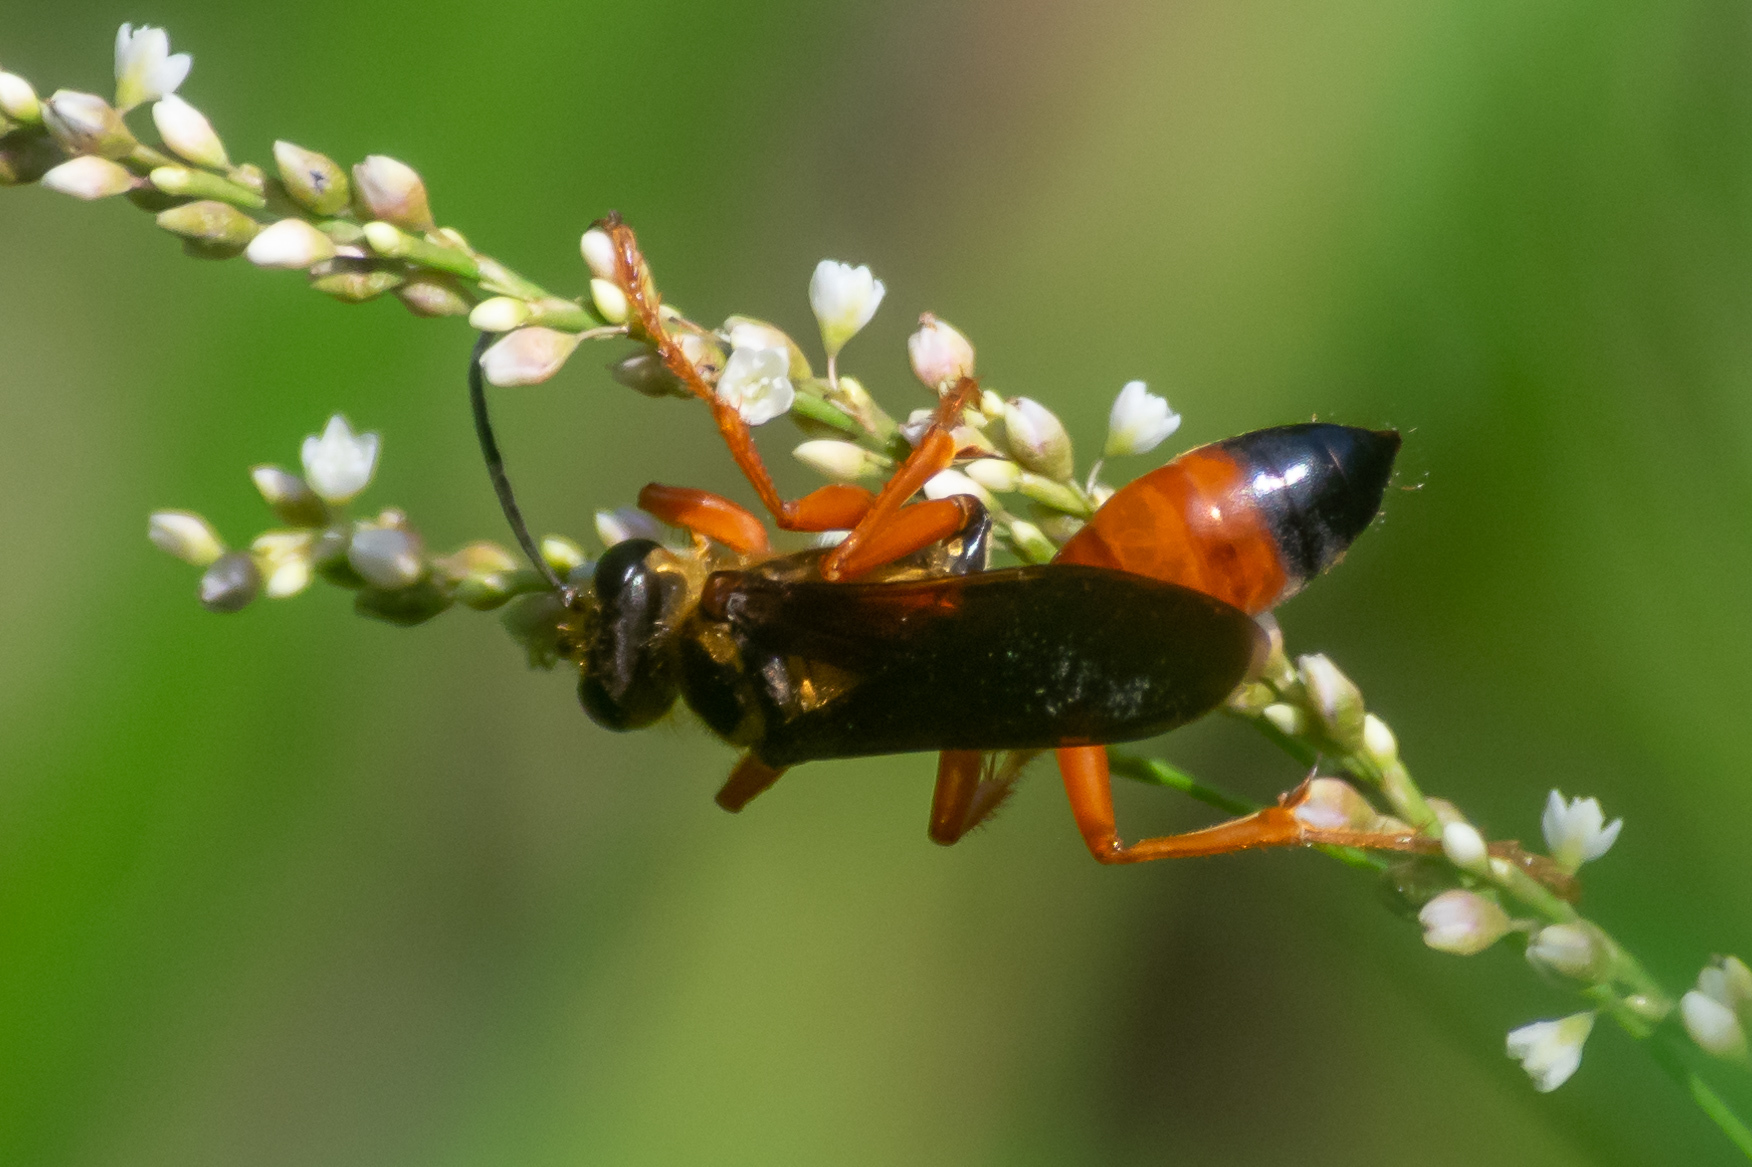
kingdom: Animalia
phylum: Arthropoda
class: Insecta
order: Hymenoptera
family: Sphecidae
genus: Sphex
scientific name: Sphex ichneumoneus
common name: Great golden digger wasp
